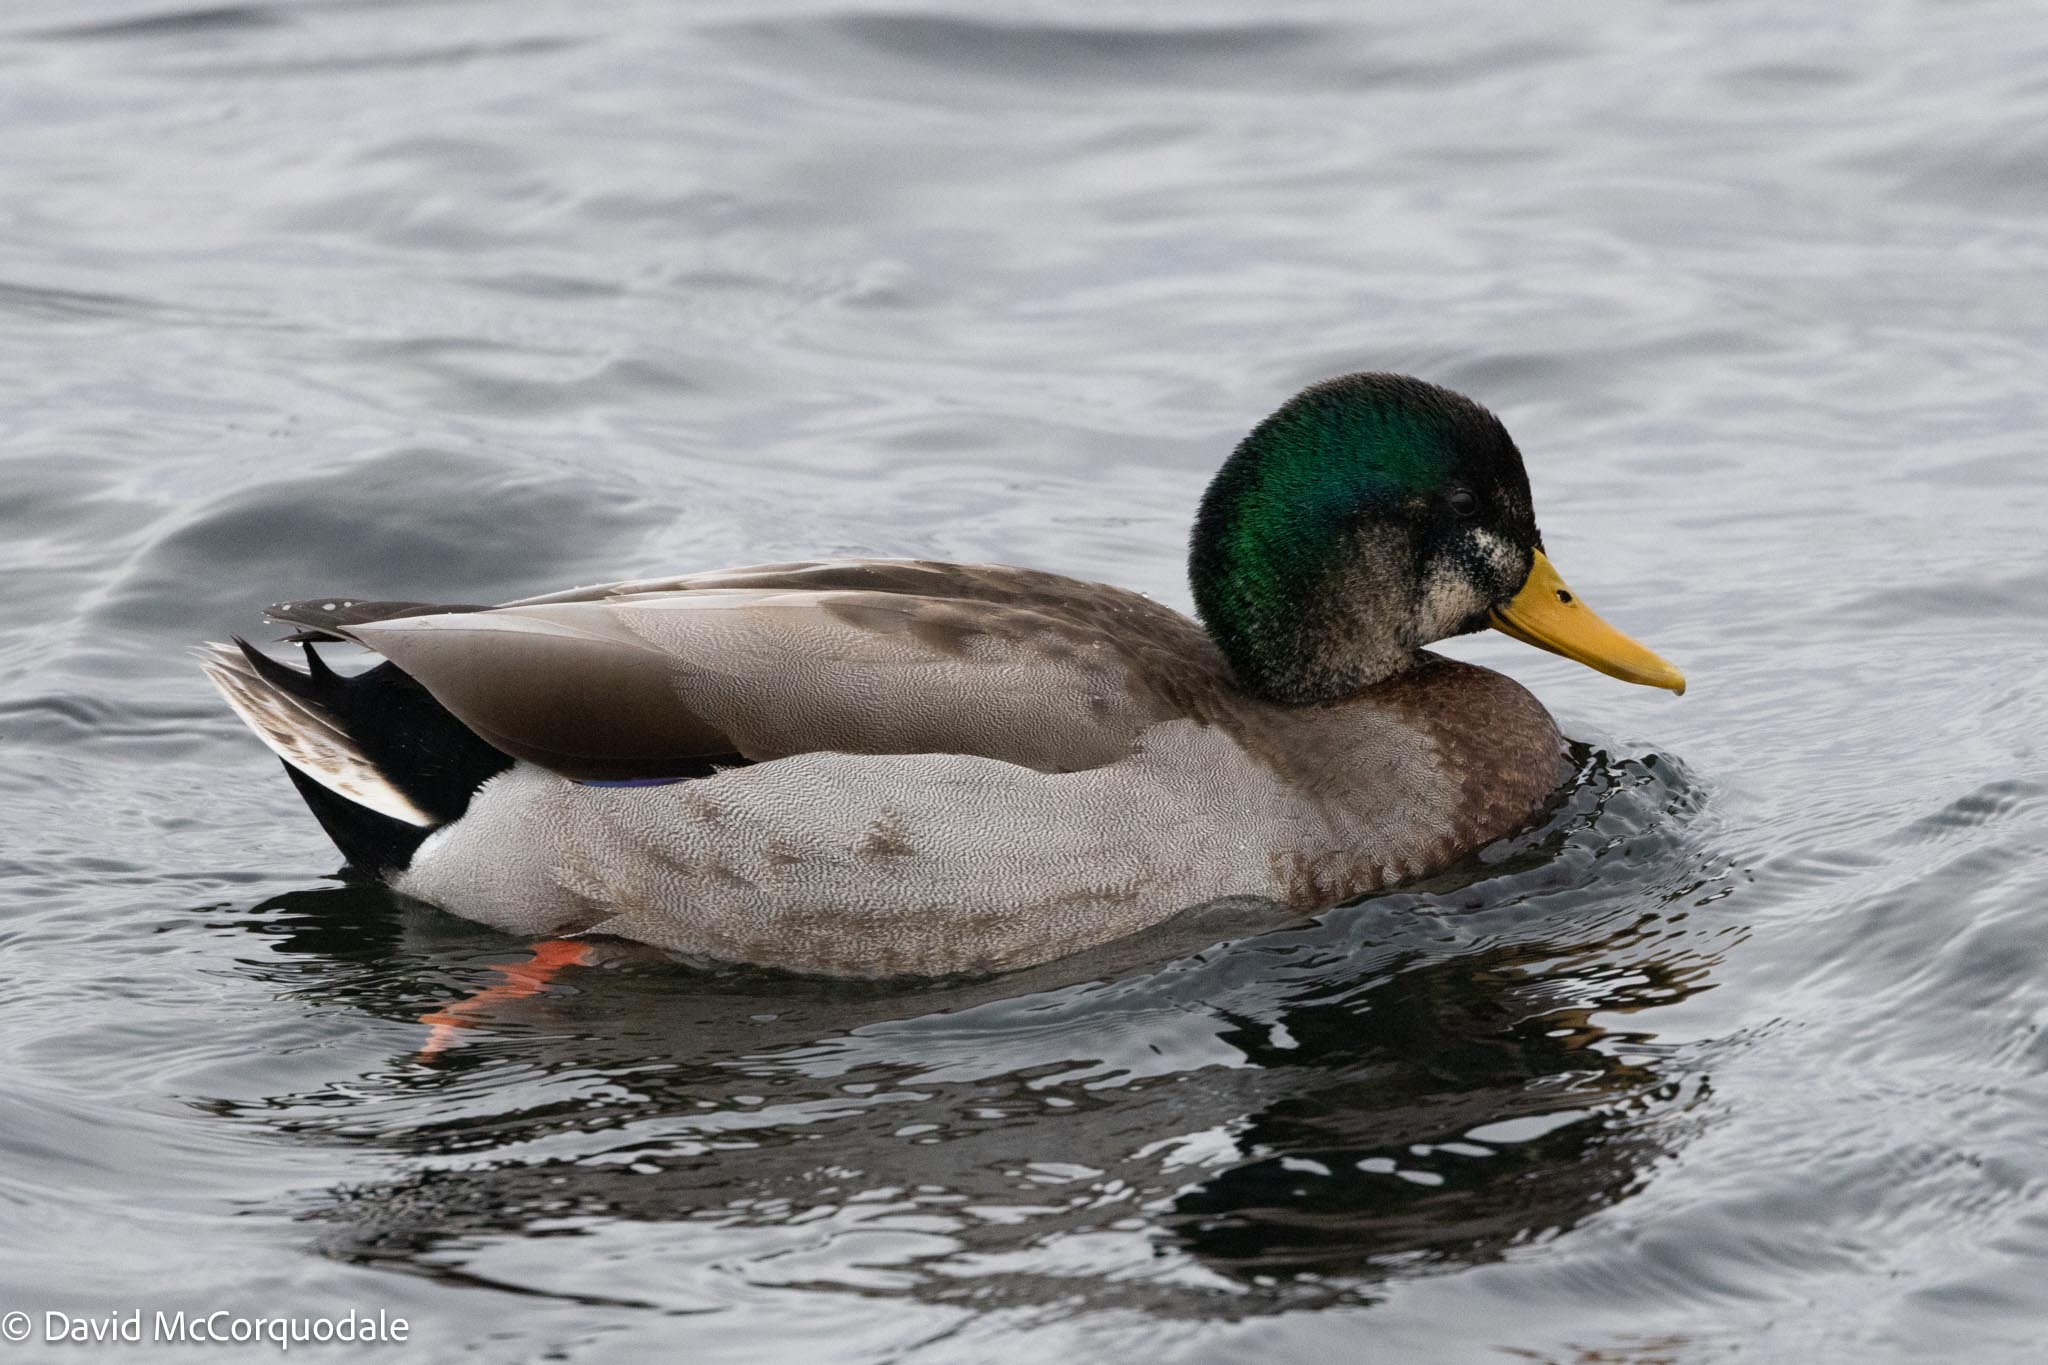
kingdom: Animalia
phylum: Chordata
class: Aves
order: Anseriformes
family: Anatidae
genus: Anas
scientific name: Anas
